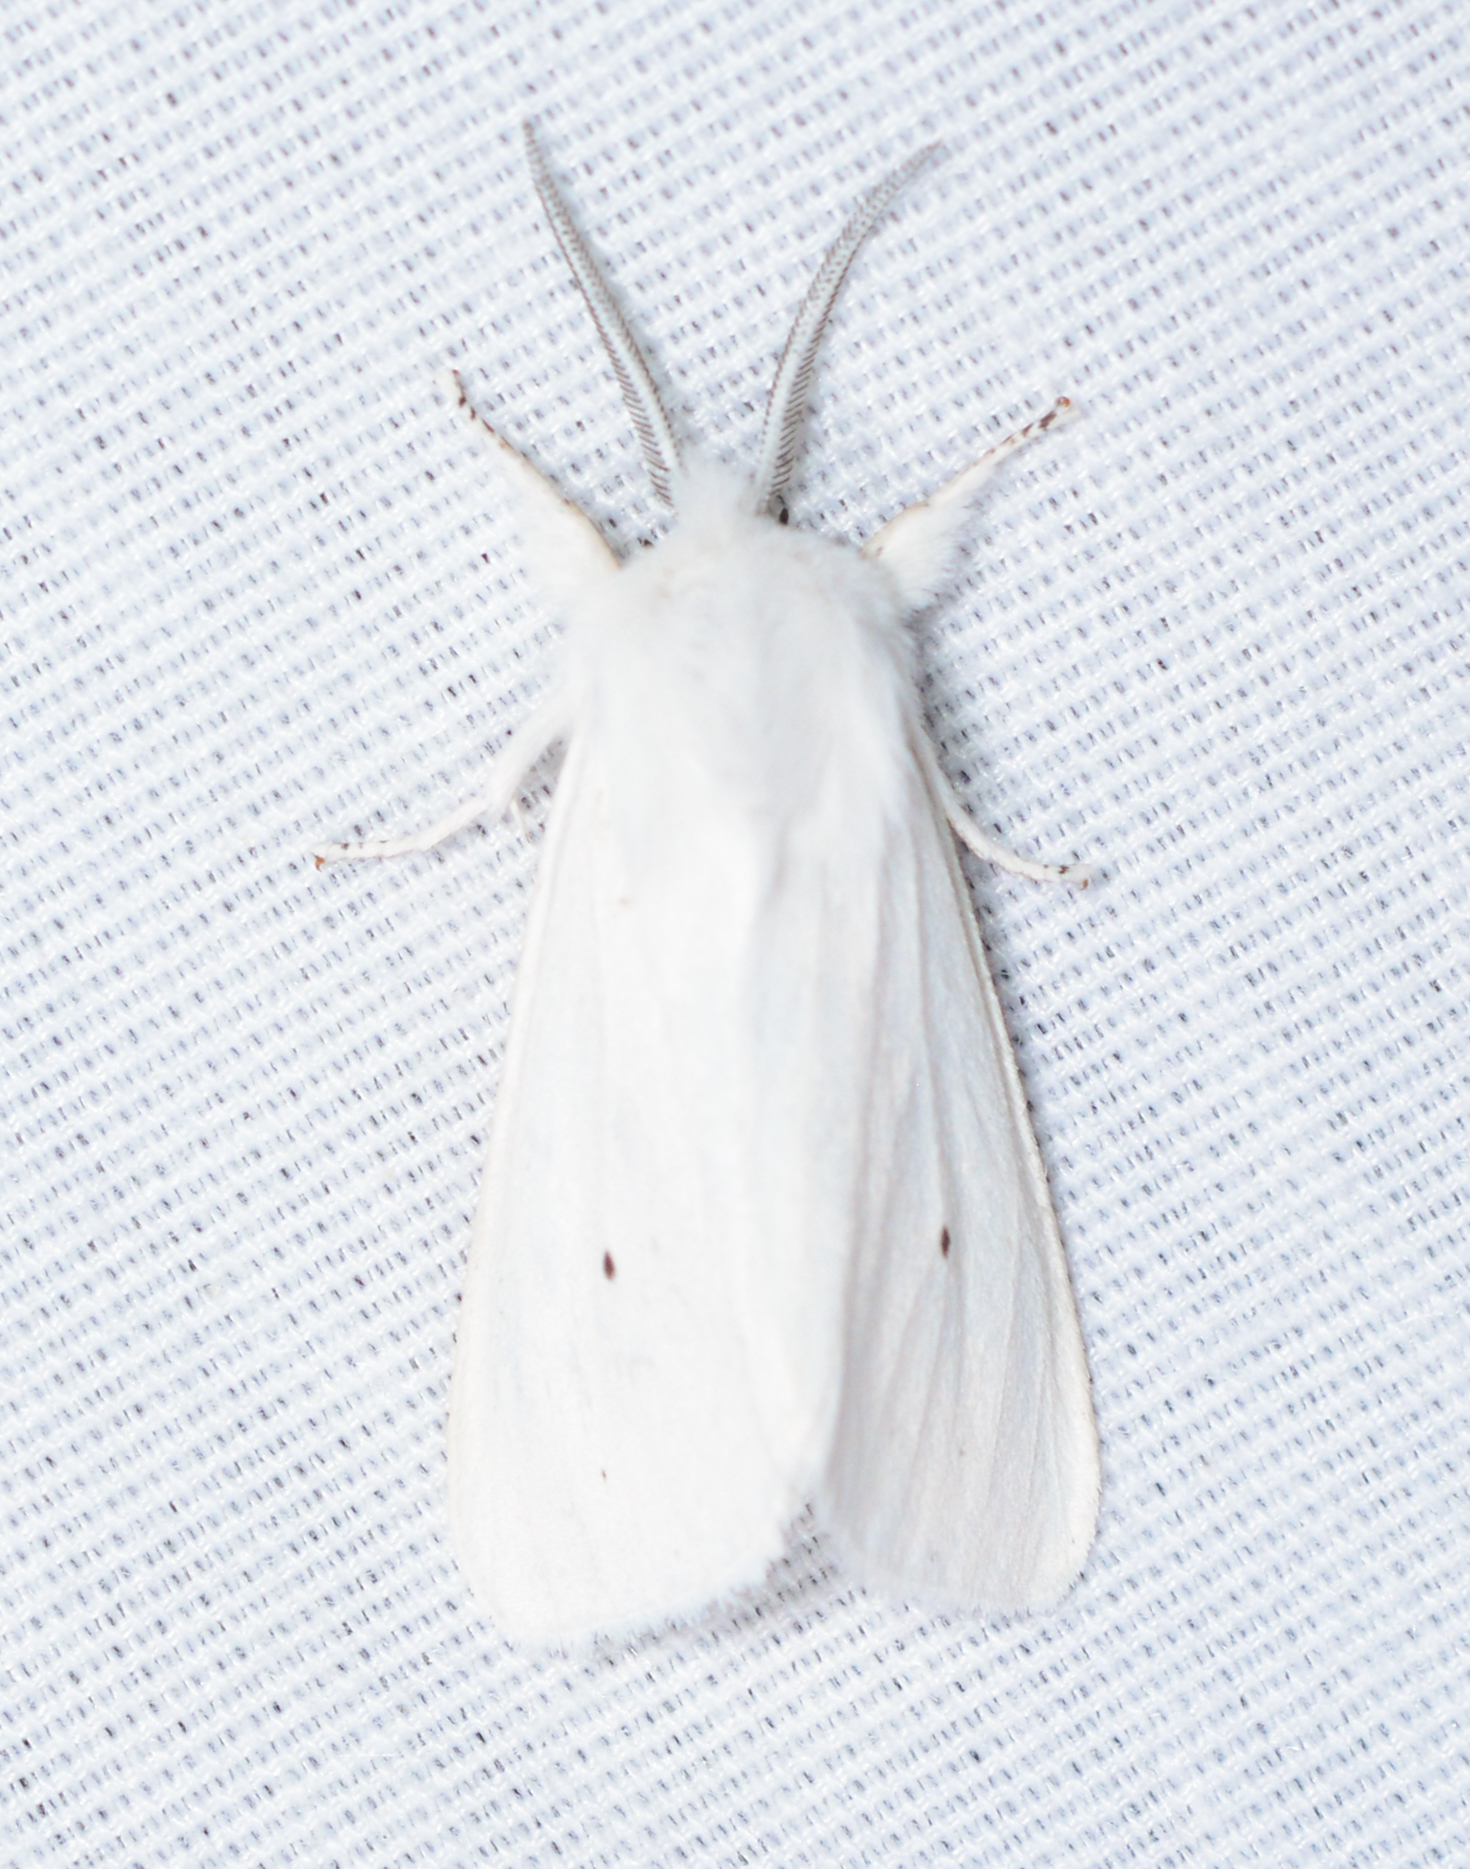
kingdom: Animalia
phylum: Arthropoda
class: Insecta
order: Lepidoptera
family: Erebidae
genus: Spilosoma
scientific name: Spilosoma virginica
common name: Virginia tiger moth
